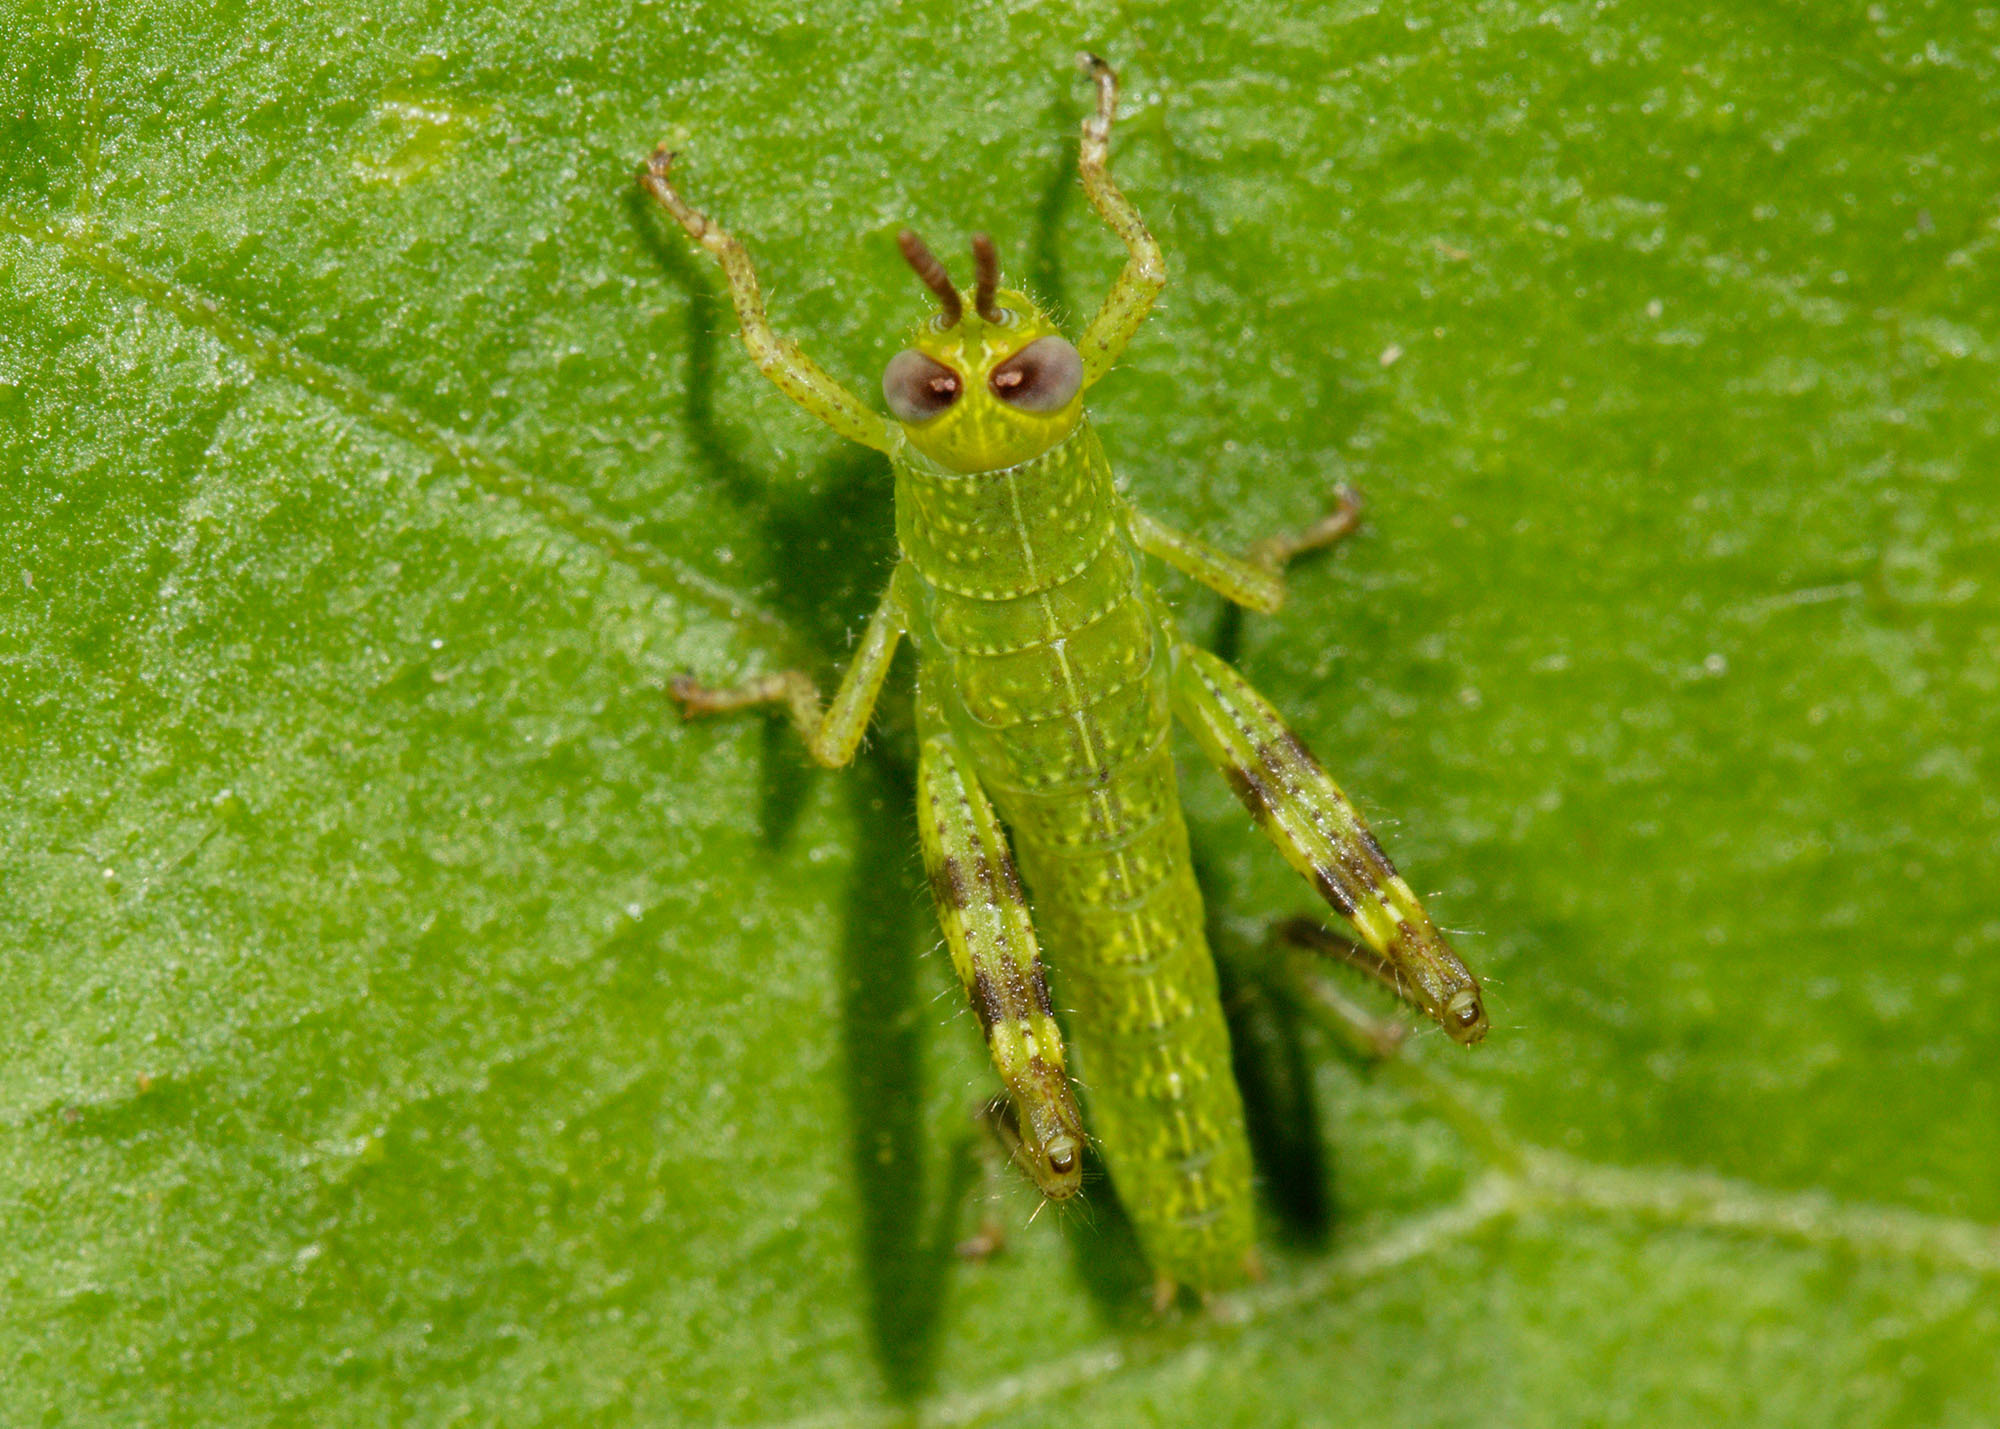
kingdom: Animalia
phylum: Arthropoda
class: Insecta
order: Orthoptera
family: Acrididae
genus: Valanga
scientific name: Valanga irregularis
